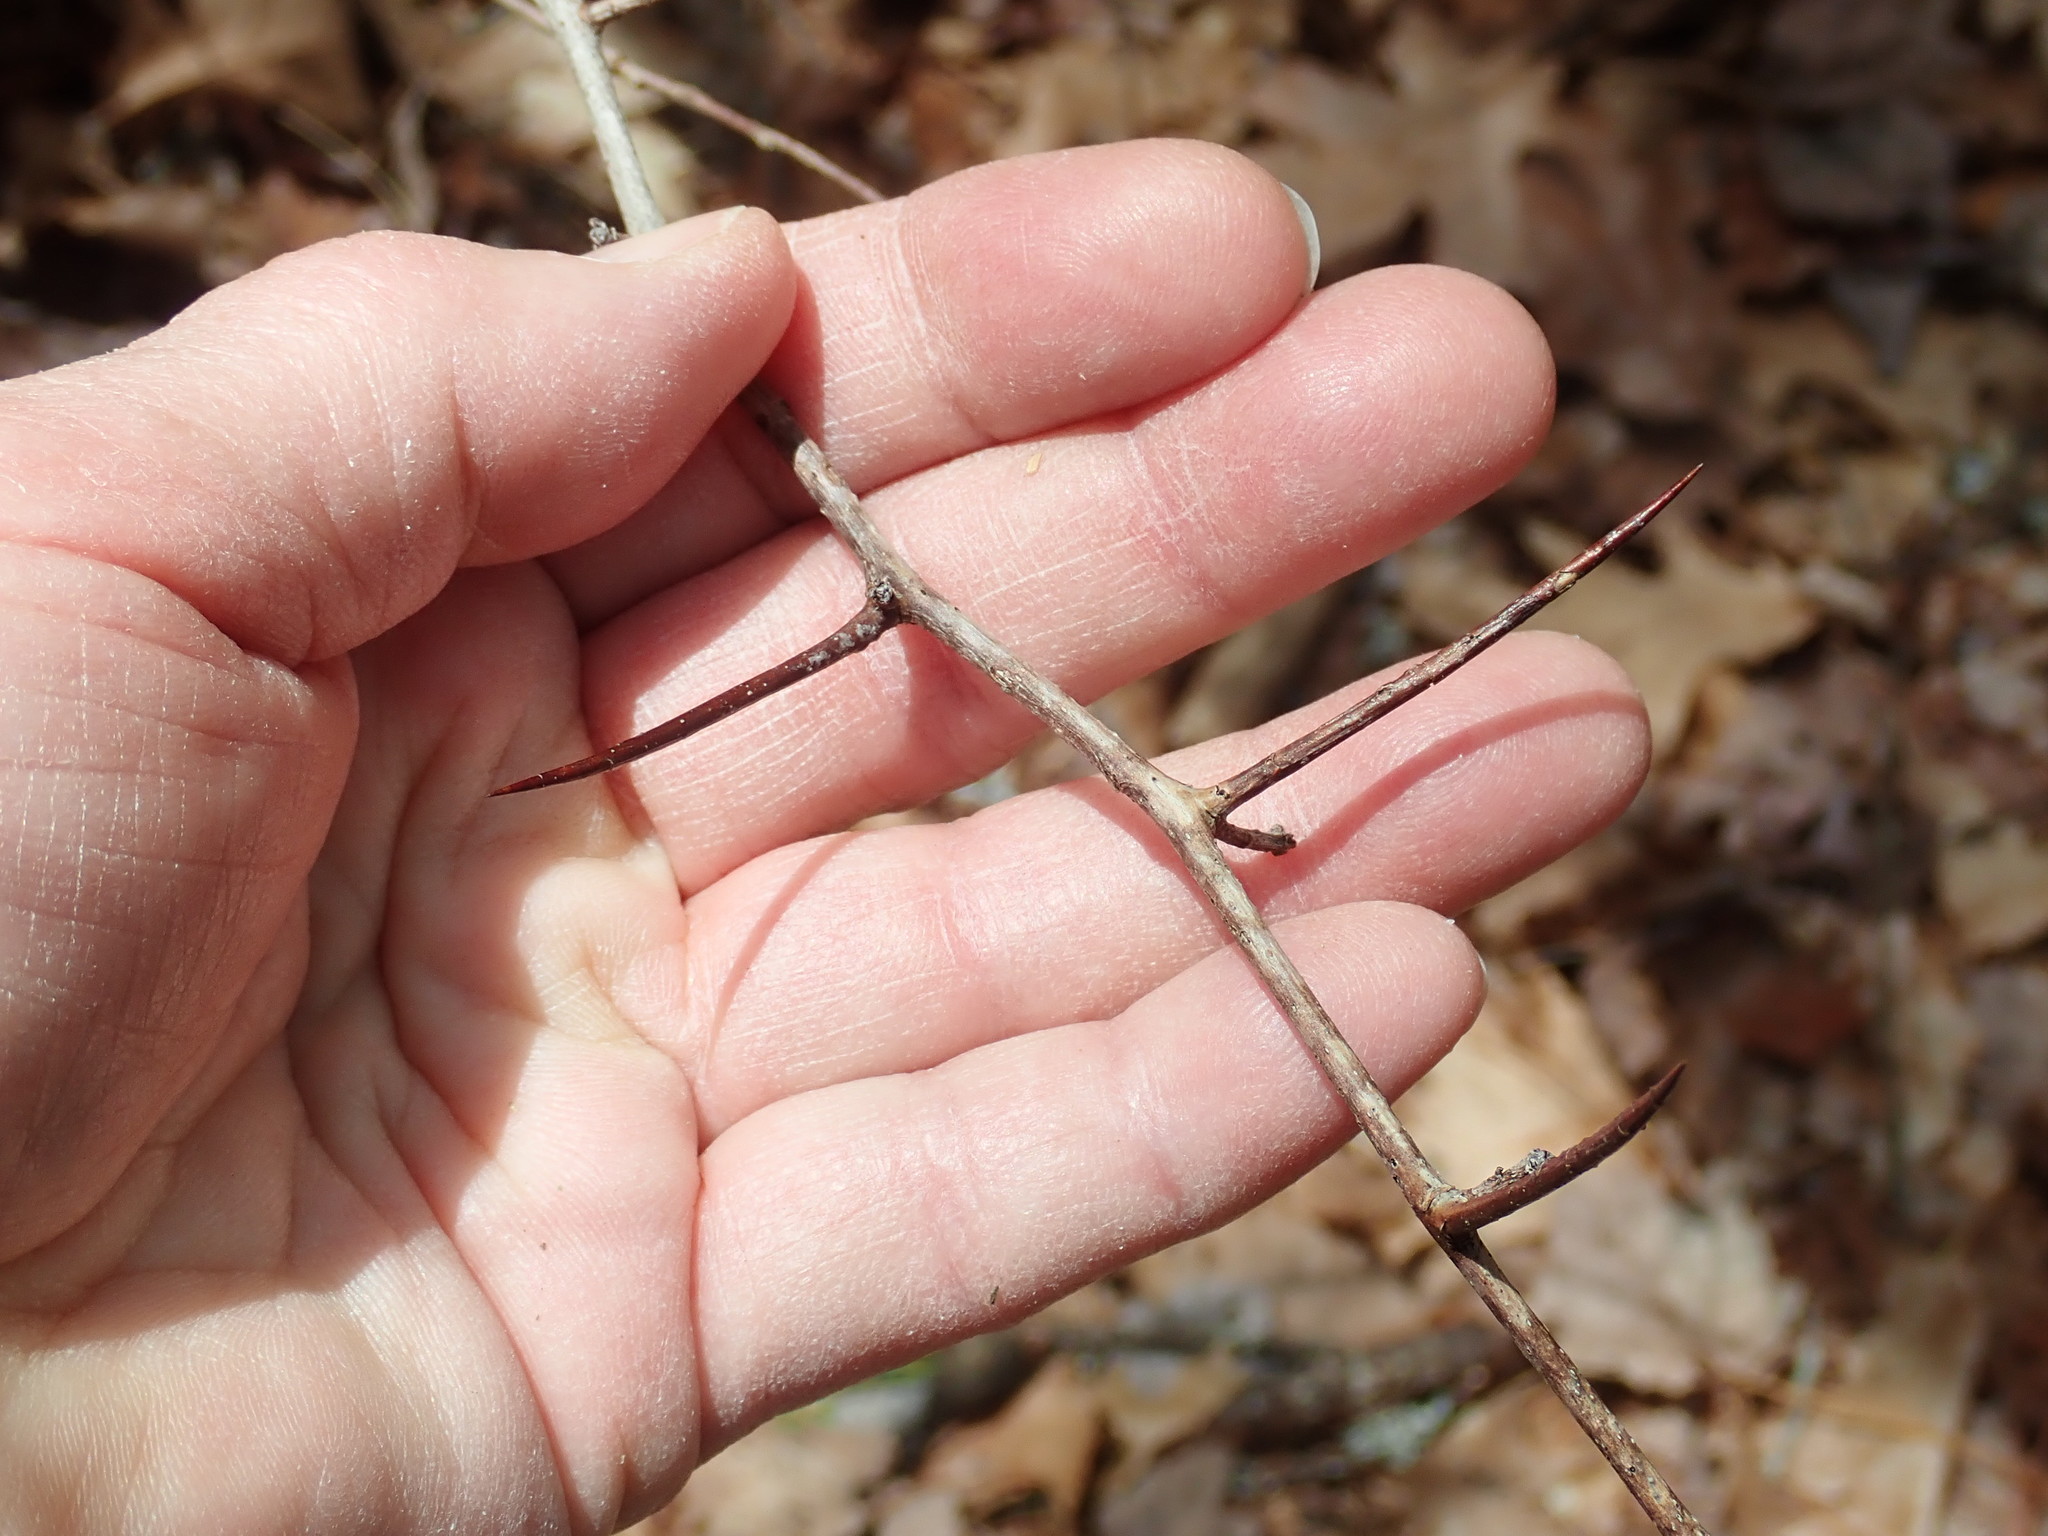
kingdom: Plantae
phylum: Tracheophyta
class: Magnoliopsida
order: Rosales
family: Rosaceae
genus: Crataegus
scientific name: Crataegus
